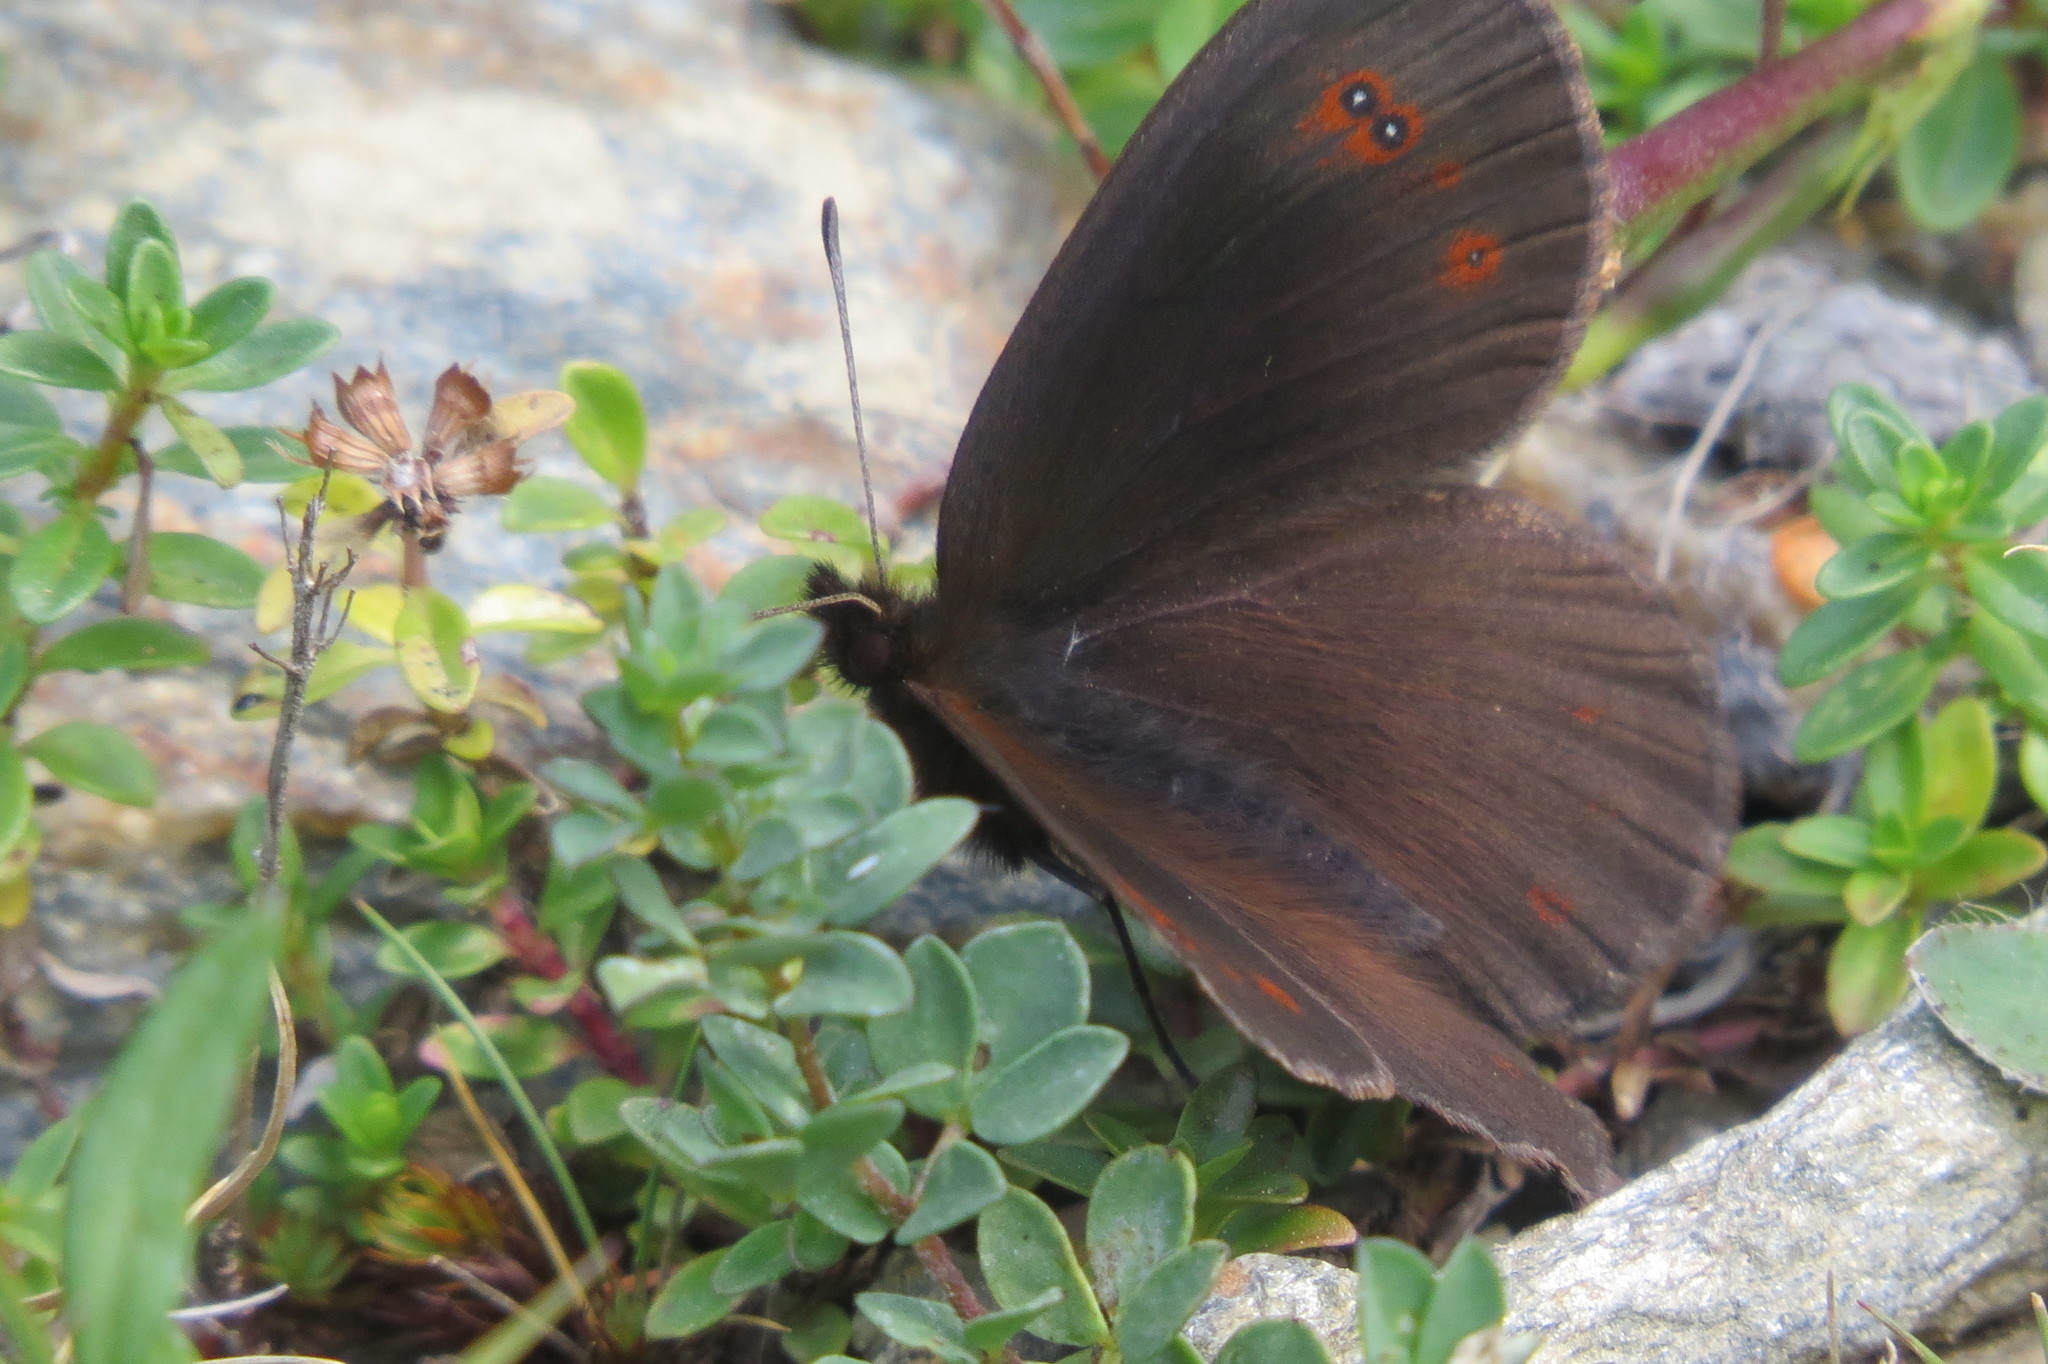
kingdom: Animalia
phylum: Arthropoda
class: Insecta
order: Lepidoptera
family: Nymphalidae
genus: Erebia
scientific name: Erebia pronoe
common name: Water ringlet
